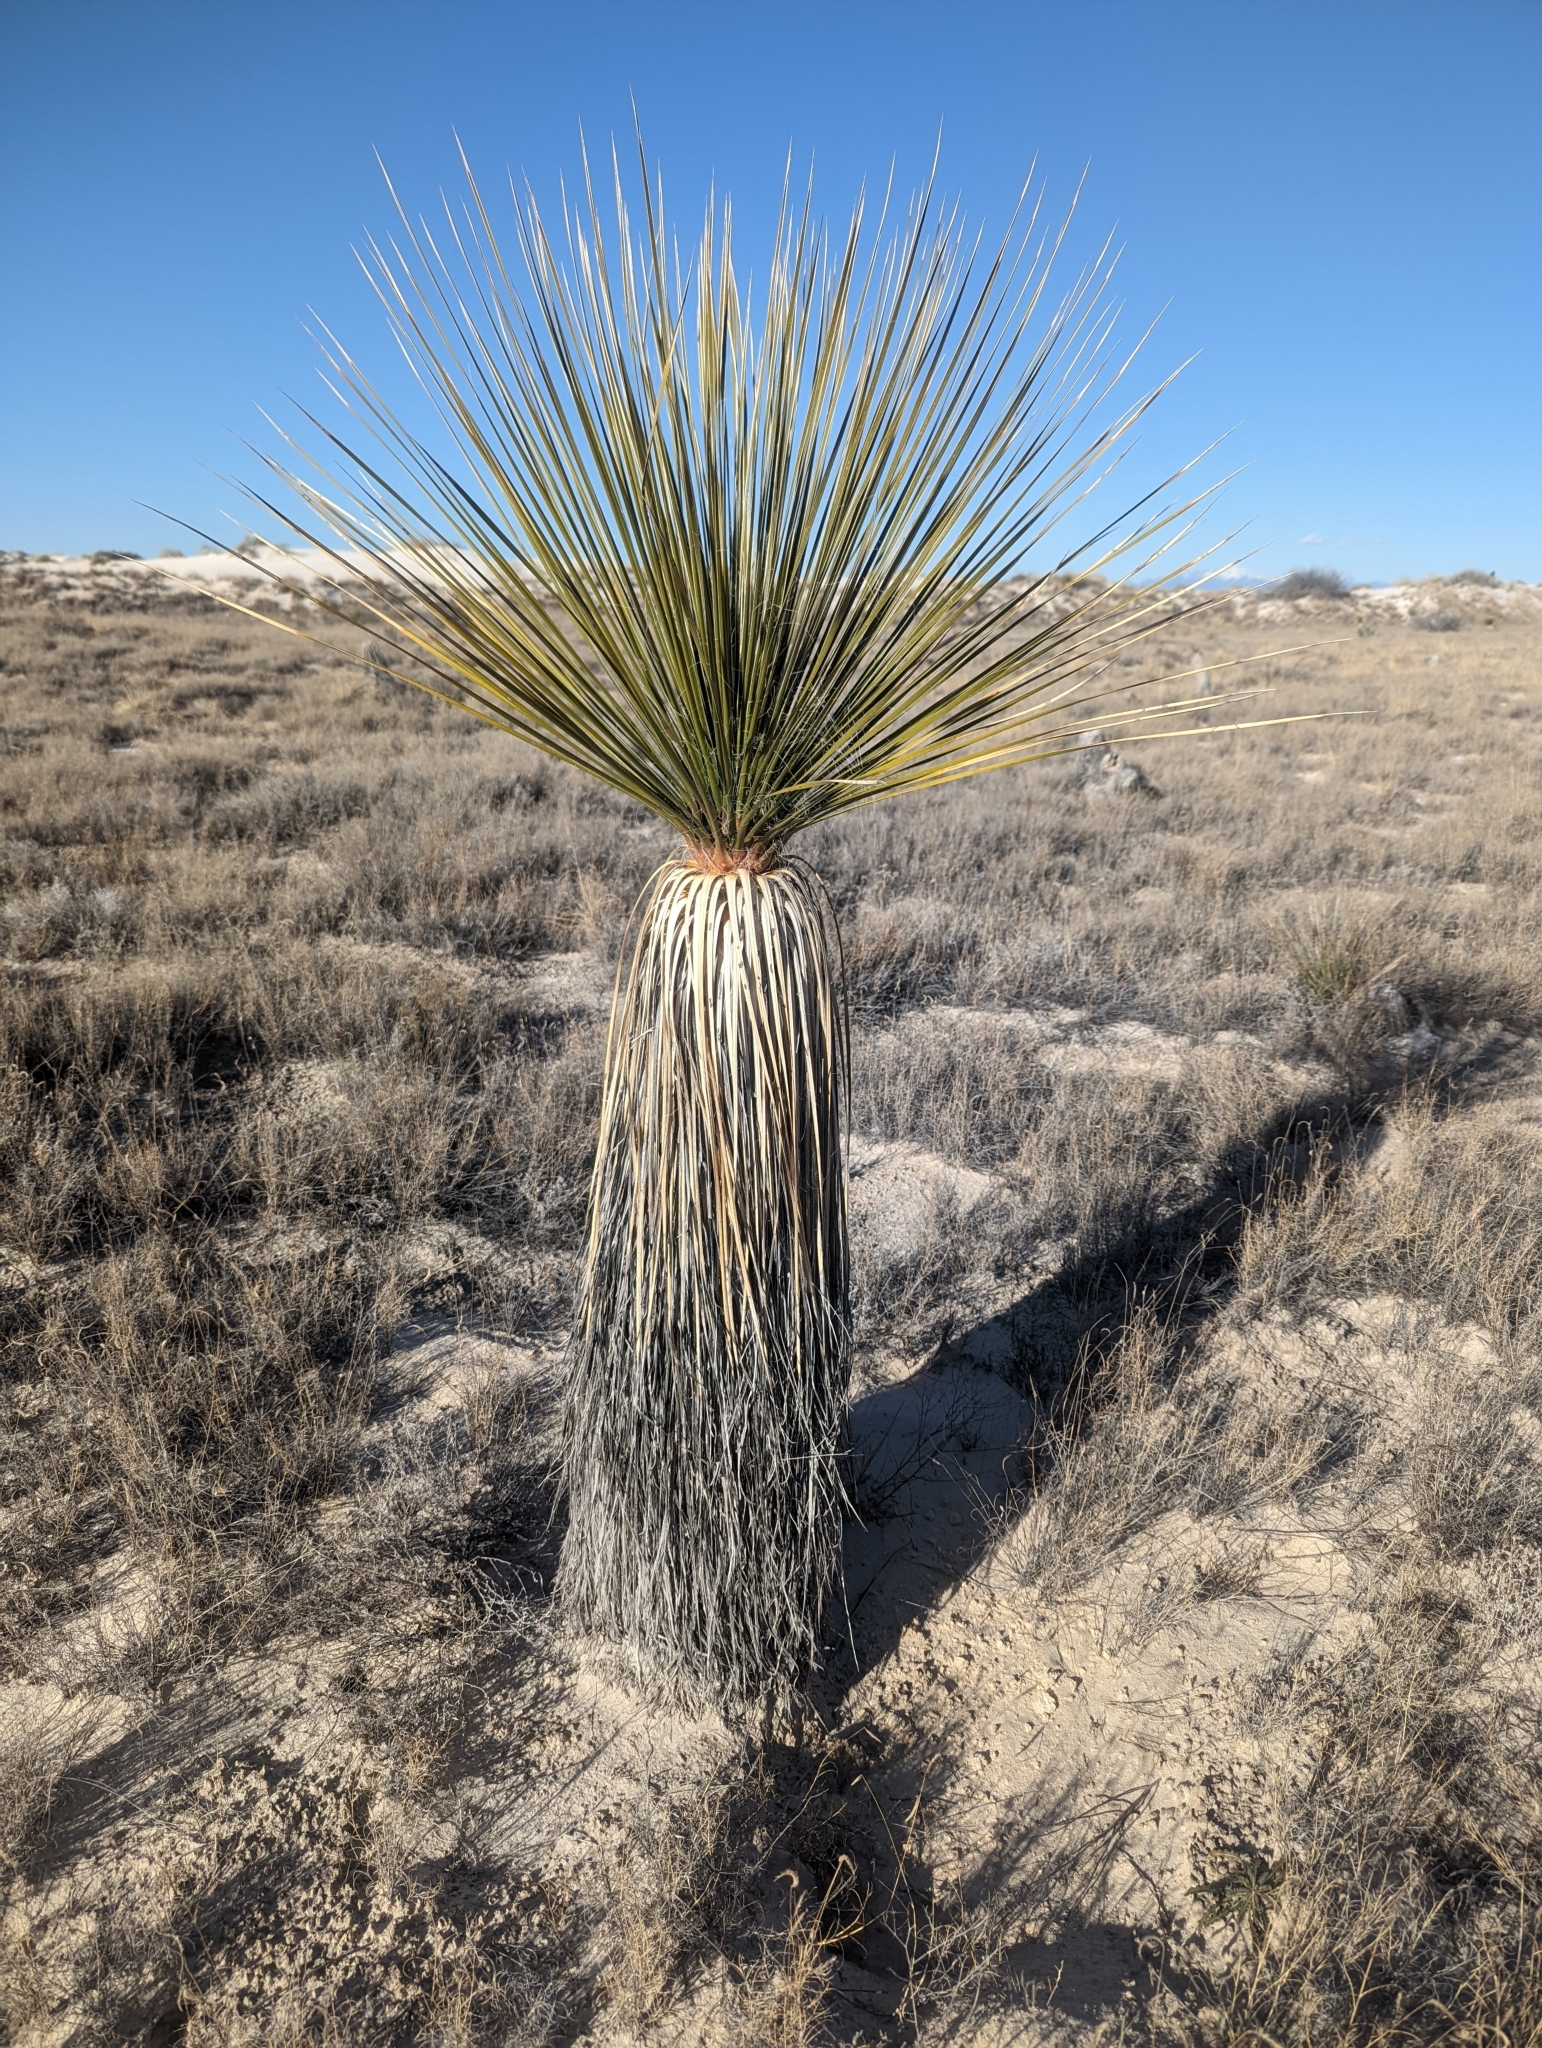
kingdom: Plantae
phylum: Tracheophyta
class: Liliopsida
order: Asparagales
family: Asparagaceae
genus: Yucca
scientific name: Yucca elata
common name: Palmella
